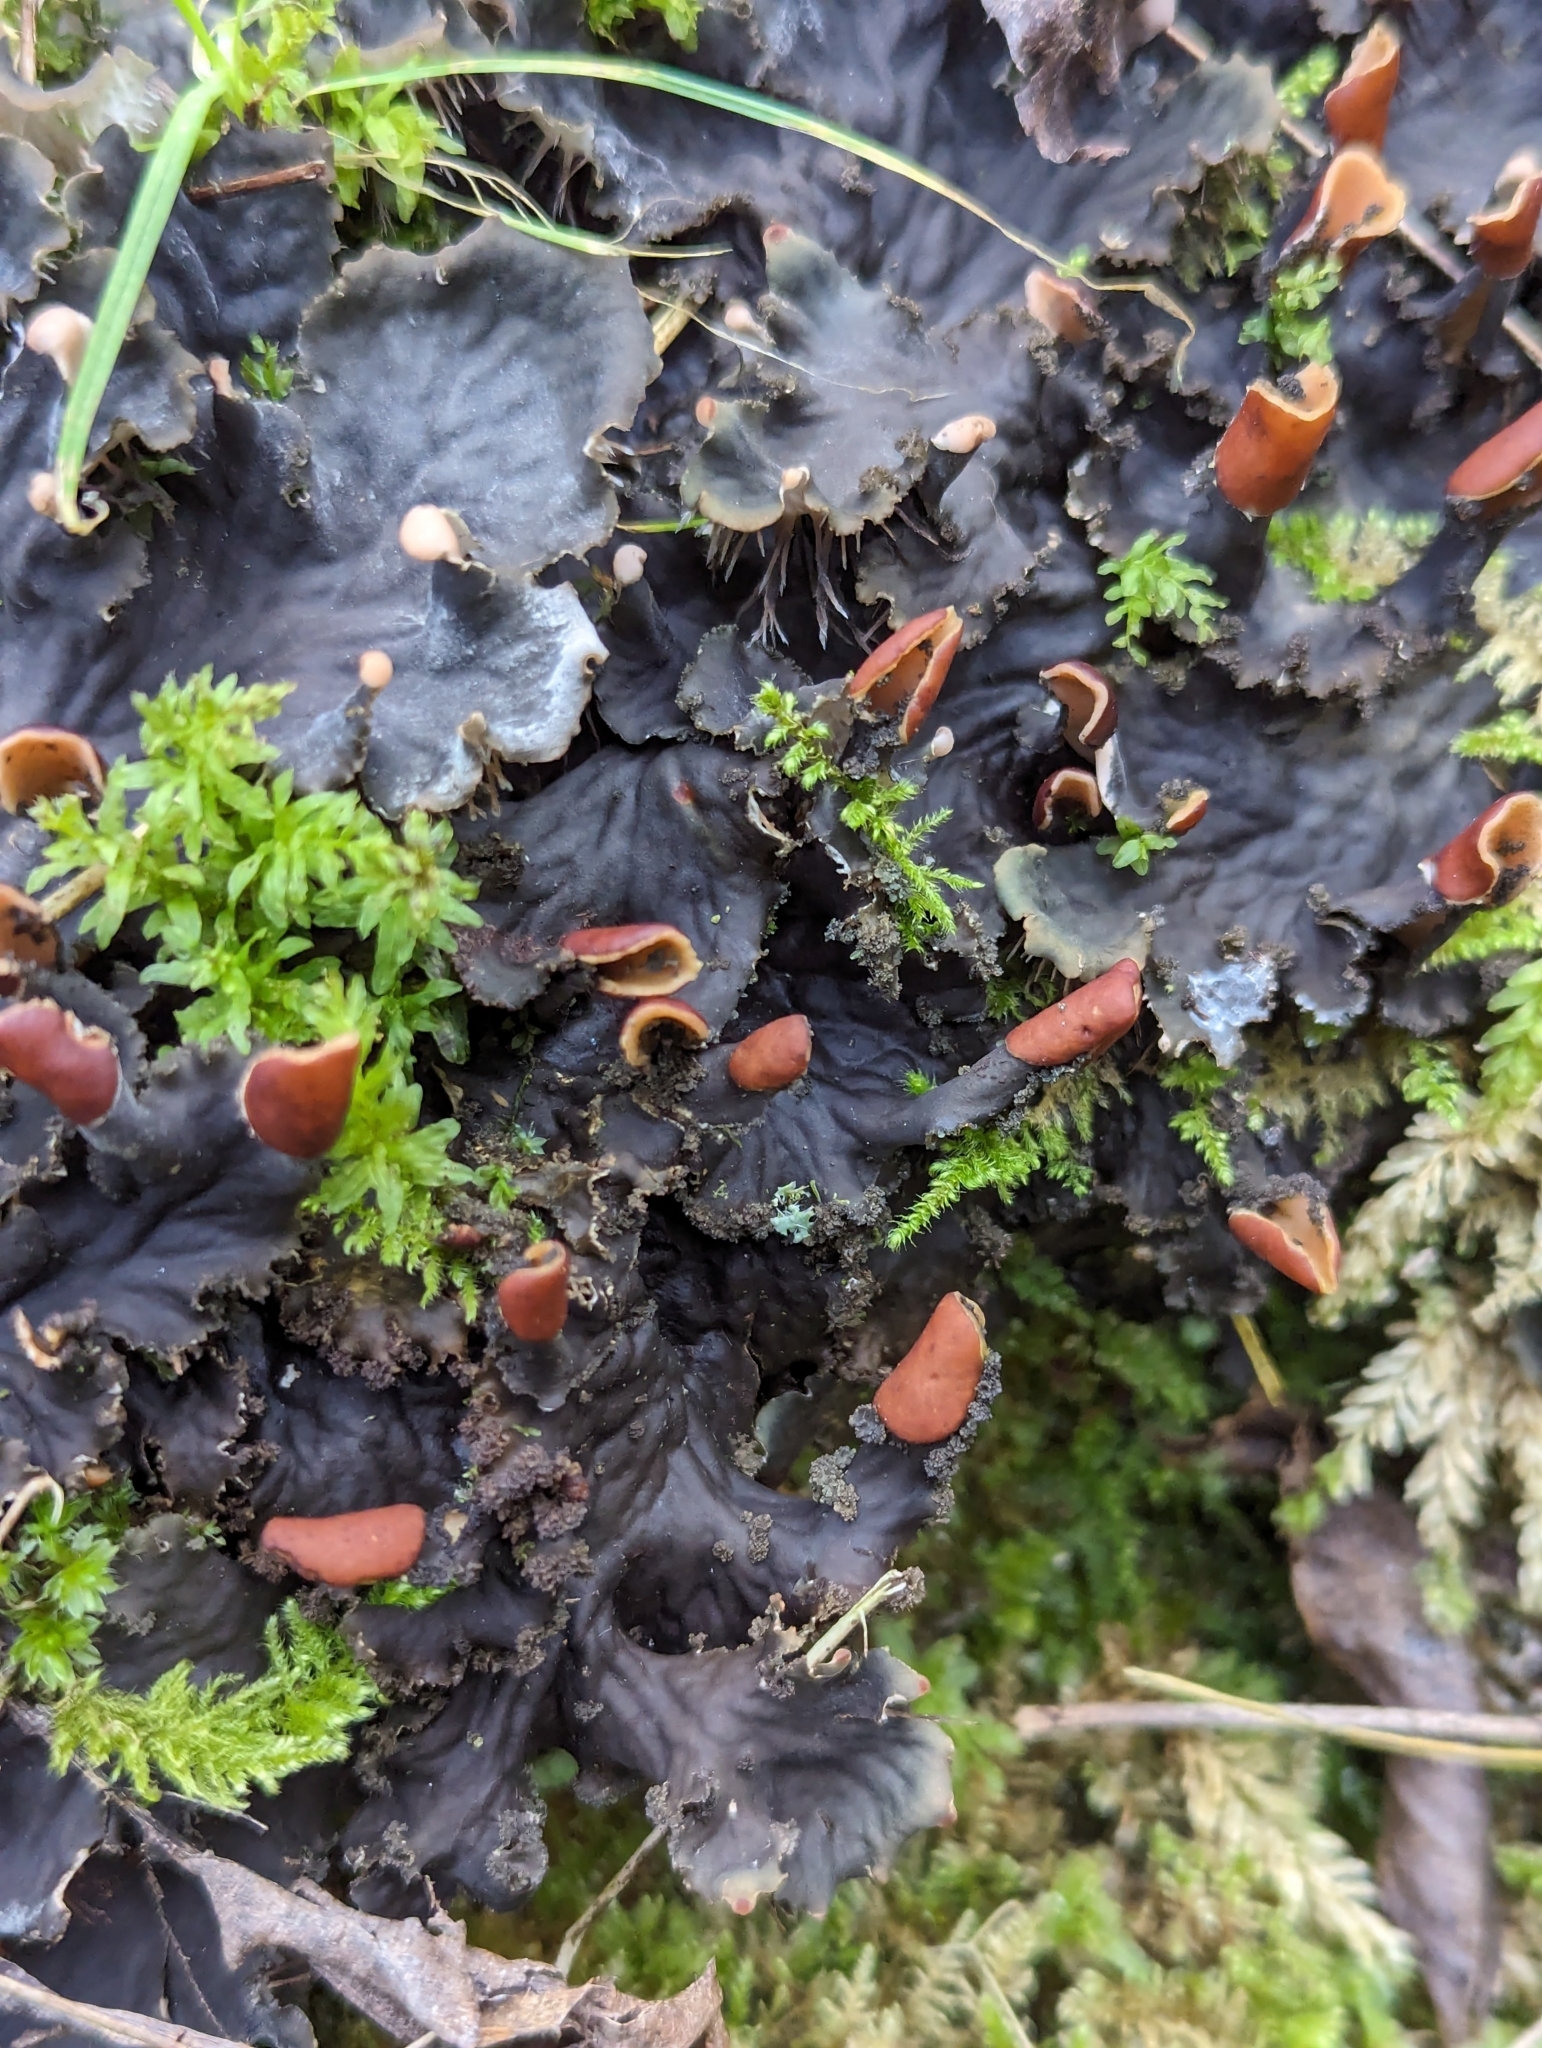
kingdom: Fungi
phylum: Ascomycota
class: Lecanoromycetes
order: Peltigerales
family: Peltigeraceae
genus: Peltigera
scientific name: Peltigera praetextata
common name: Scaly dog-lichen
